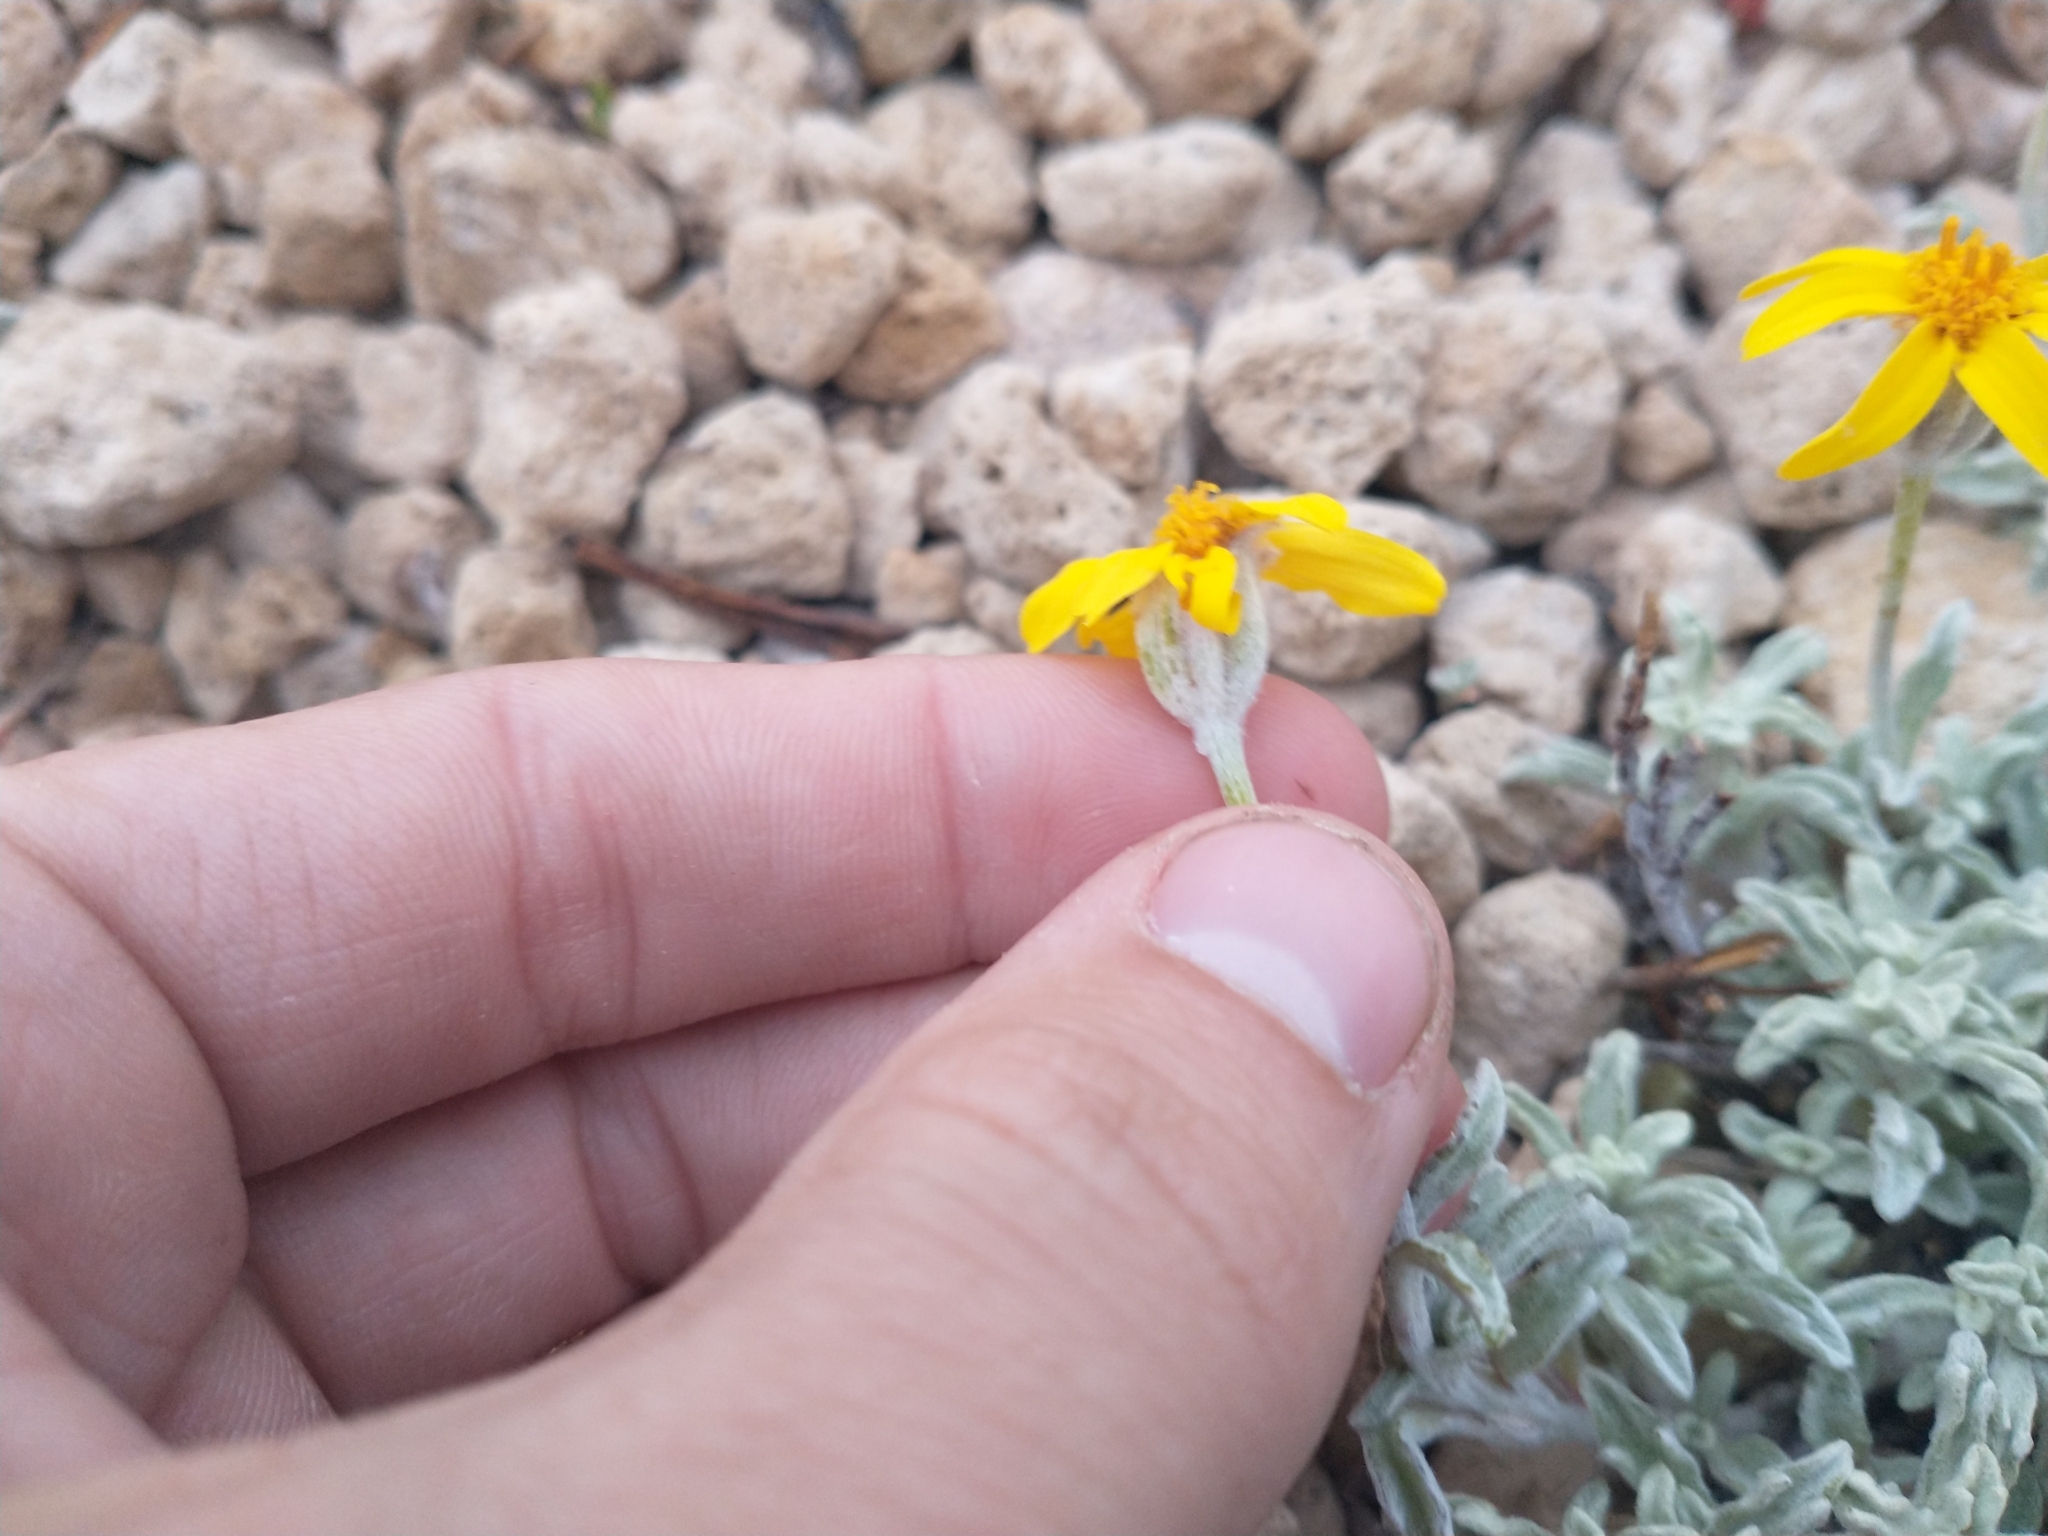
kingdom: Plantae
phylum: Tracheophyta
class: Magnoliopsida
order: Asterales
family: Asteraceae
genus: Eriophyllum
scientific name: Eriophyllum lanatum
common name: Common woolly-sunflower
